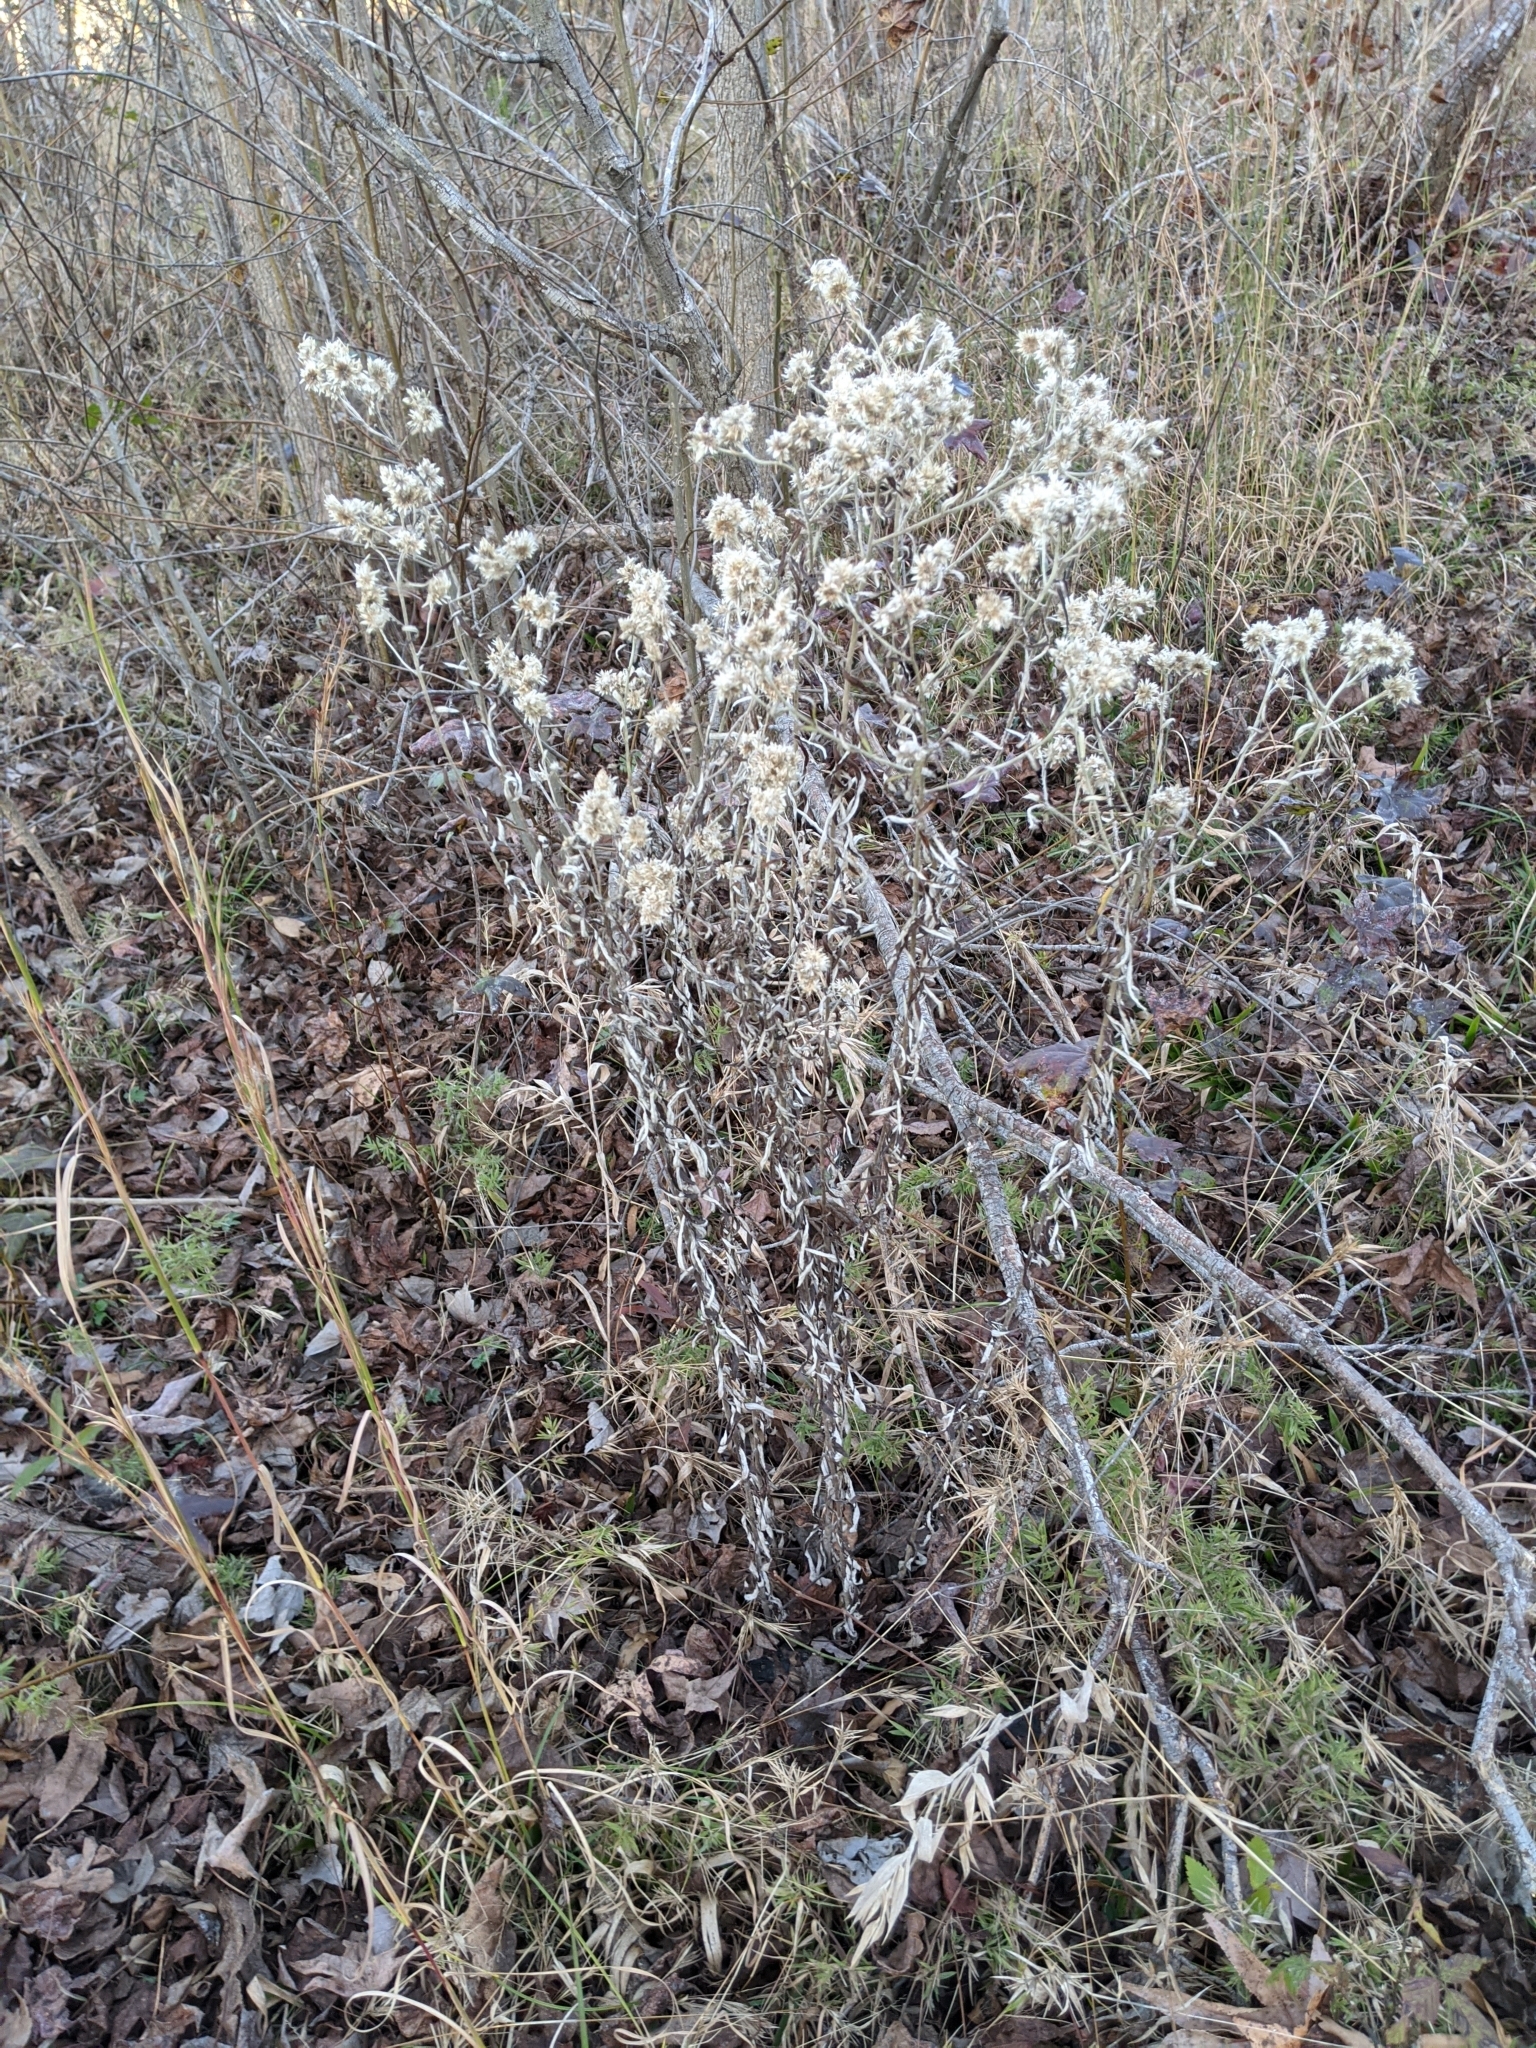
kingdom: Plantae
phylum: Tracheophyta
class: Magnoliopsida
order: Asterales
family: Asteraceae
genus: Pseudognaphalium
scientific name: Pseudognaphalium obtusifolium
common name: Eastern rabbit-tobacco
